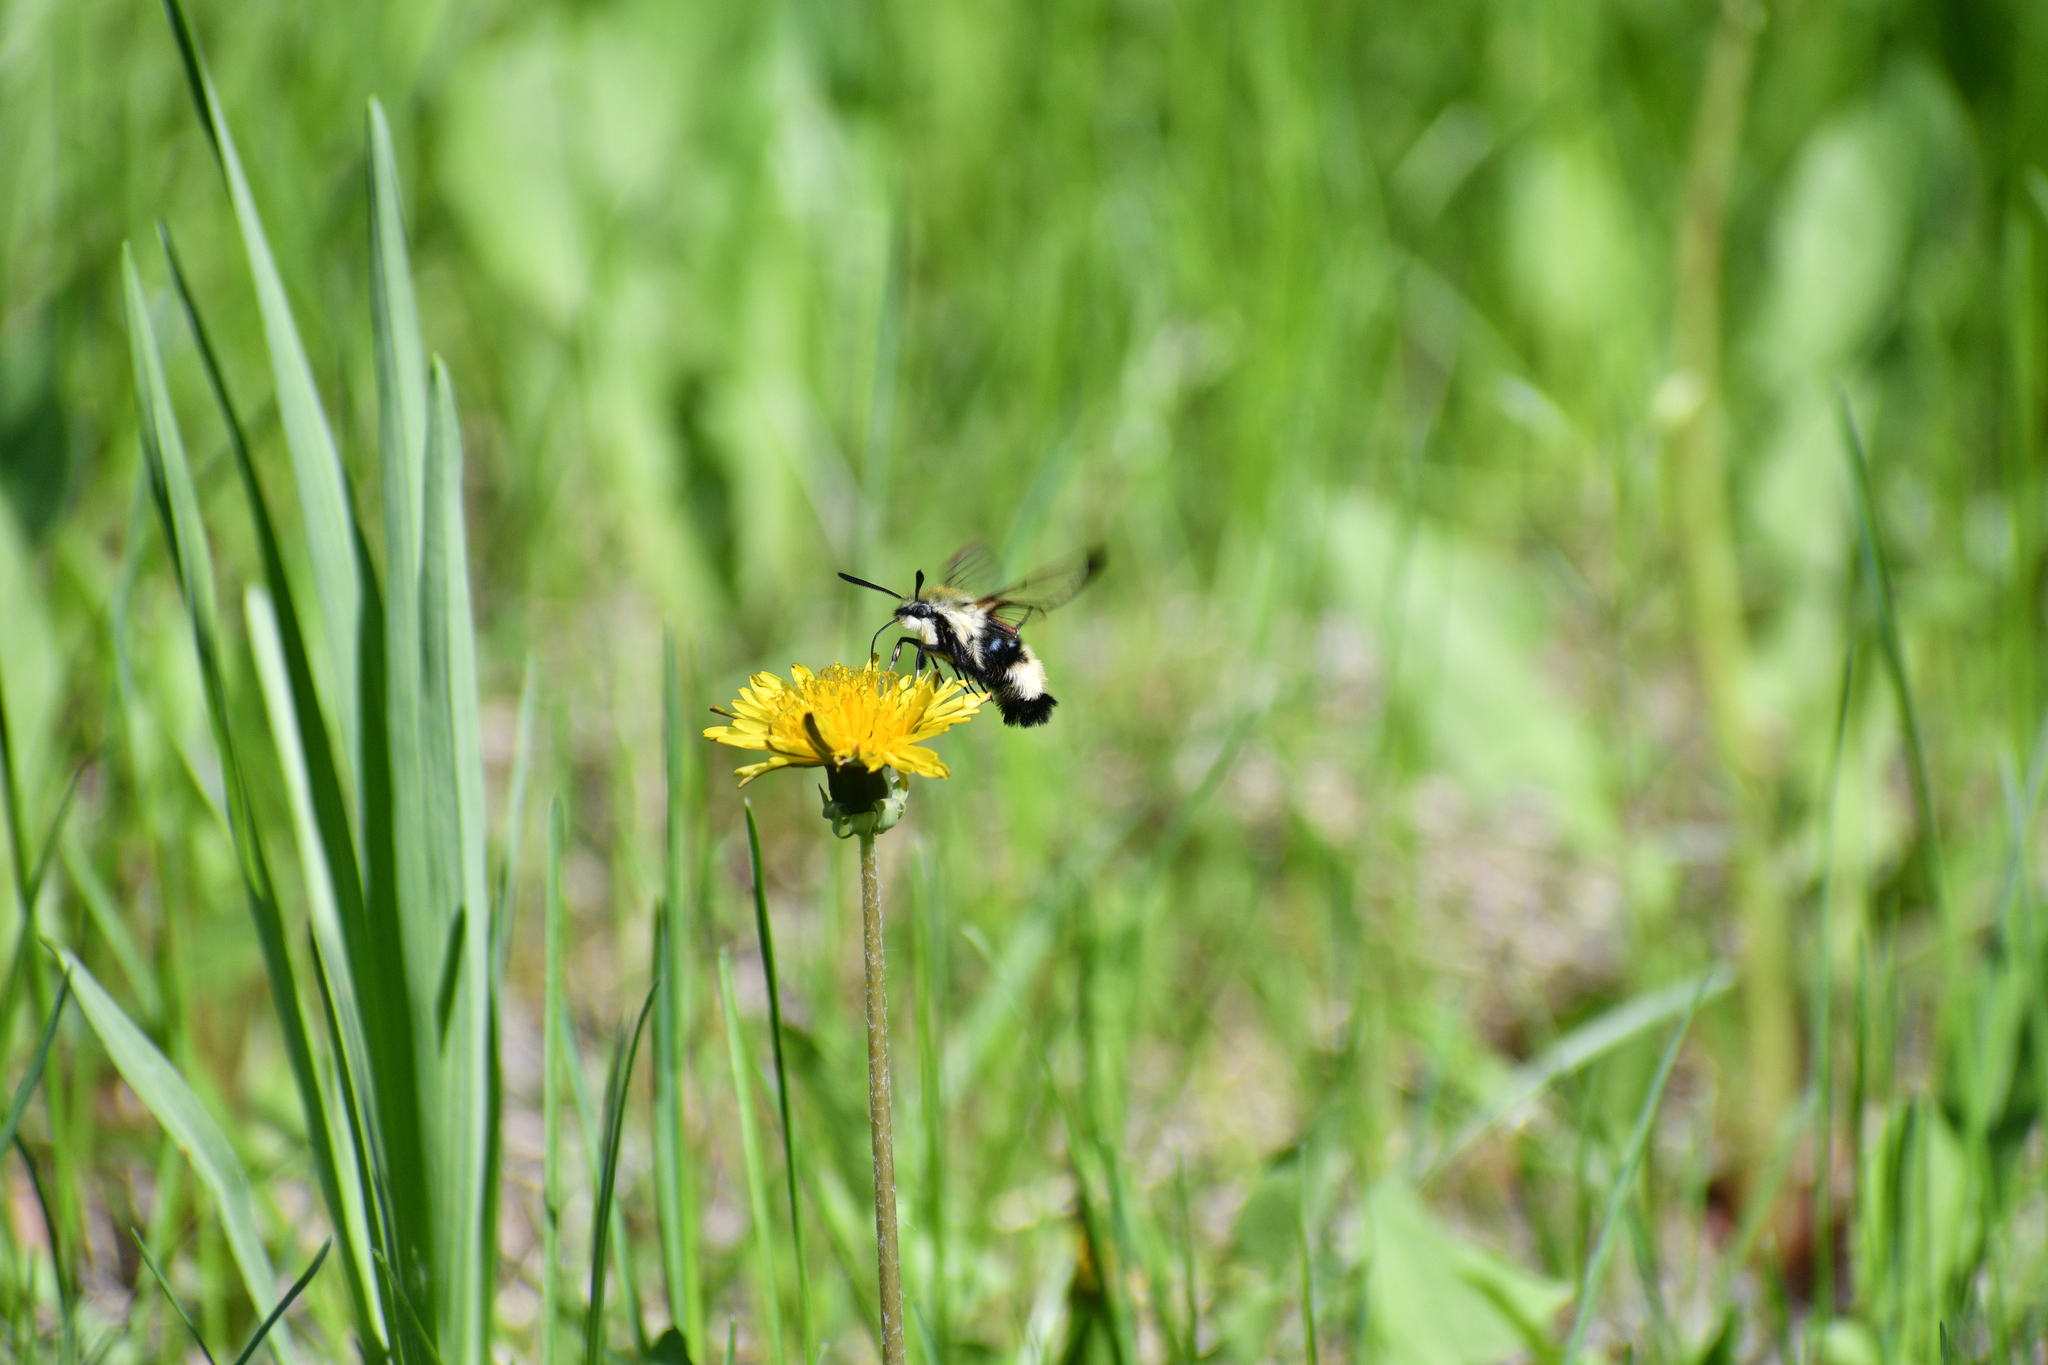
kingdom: Animalia
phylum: Arthropoda
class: Insecta
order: Lepidoptera
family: Sphingidae
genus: Hemaris
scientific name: Hemaris thetis
